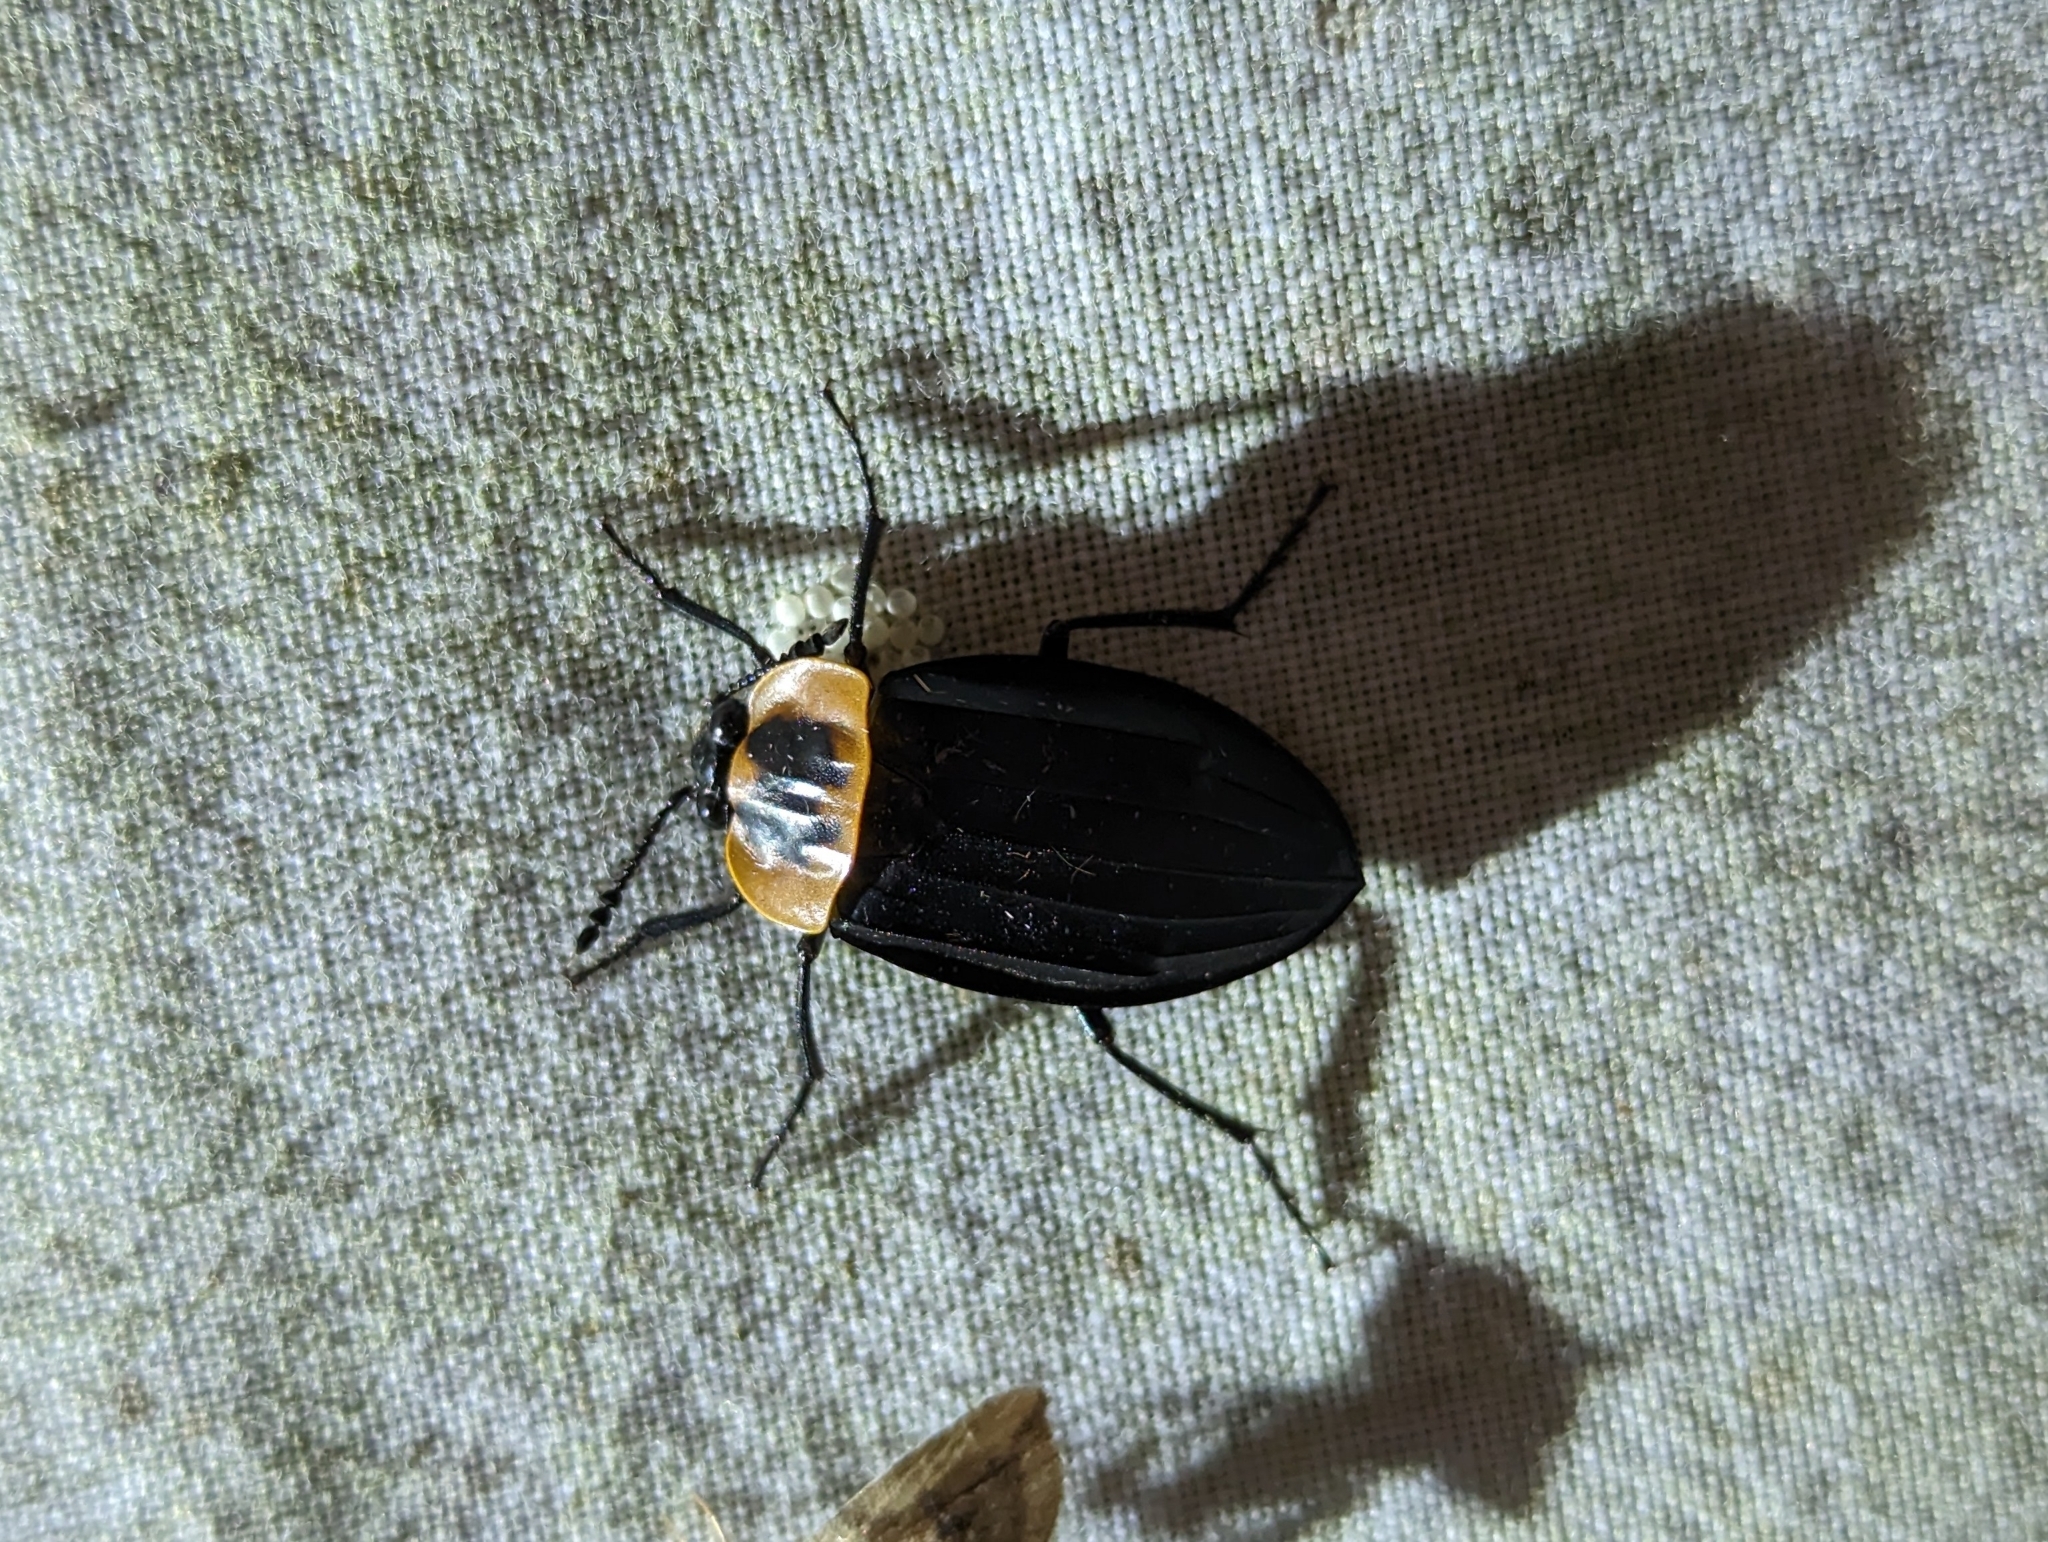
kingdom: Animalia
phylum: Arthropoda
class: Insecta
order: Coleoptera
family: Staphylinidae
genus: Oxelytrum
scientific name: Oxelytrum discicolle
